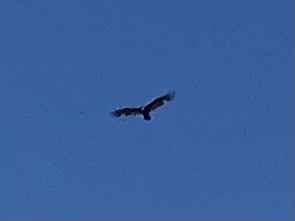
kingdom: Animalia
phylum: Chordata
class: Aves
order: Accipitriformes
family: Cathartidae
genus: Cathartes
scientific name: Cathartes aura
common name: Turkey vulture
